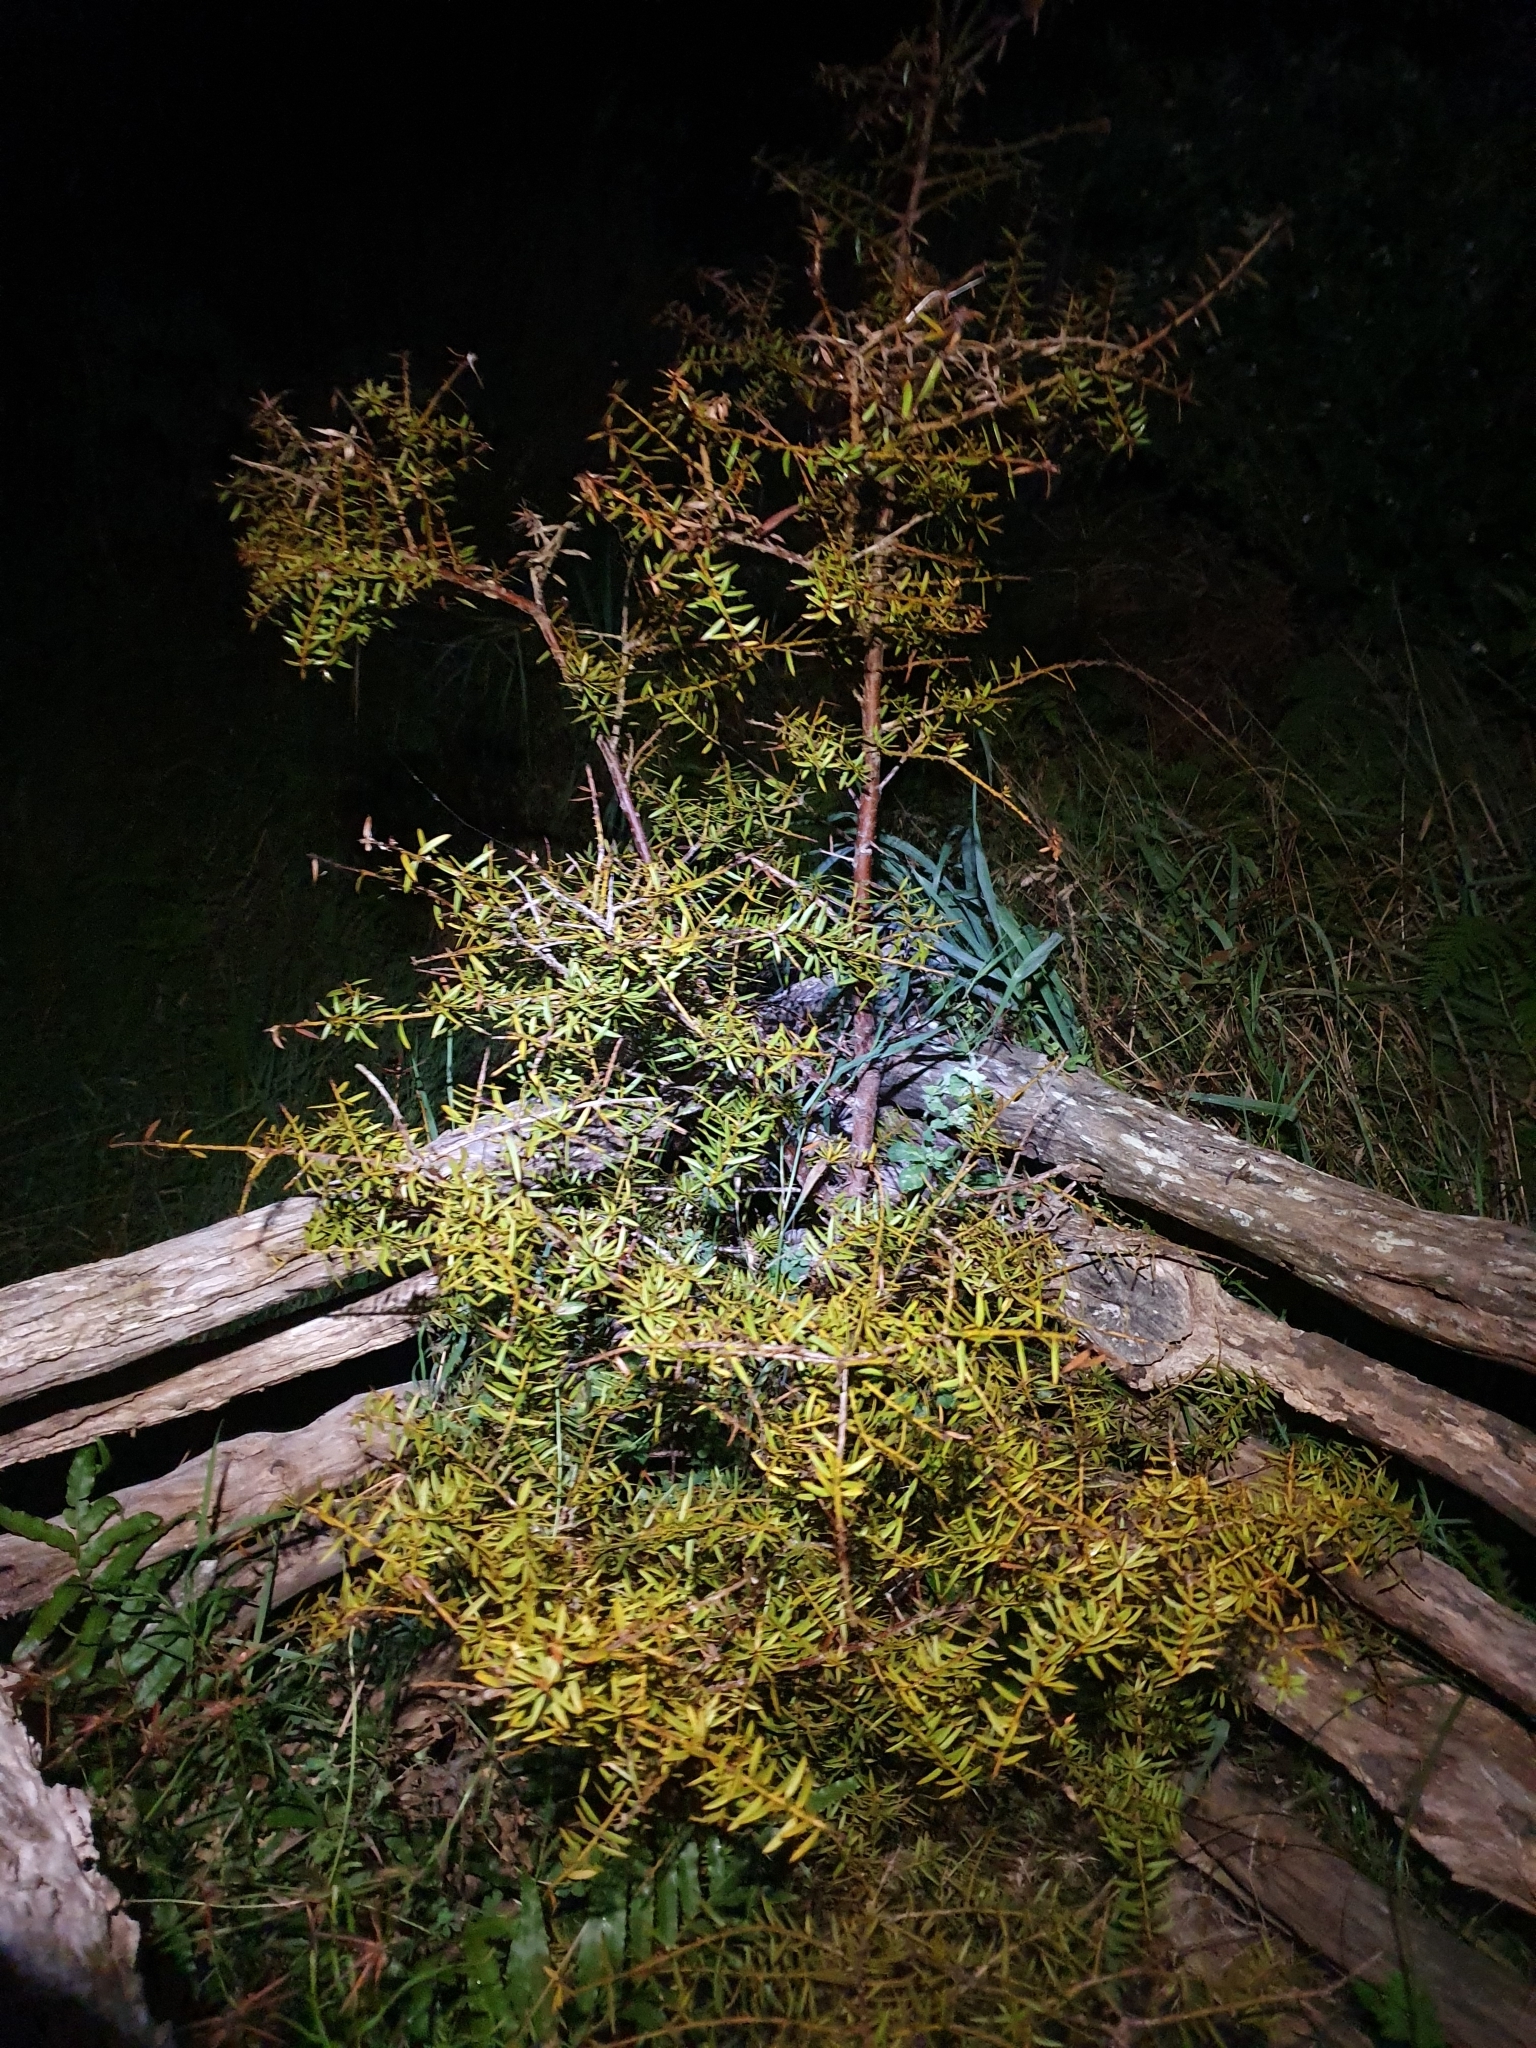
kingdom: Plantae
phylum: Tracheophyta
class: Pinopsida
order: Pinales
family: Podocarpaceae
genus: Podocarpus
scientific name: Podocarpus totara
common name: Totara
